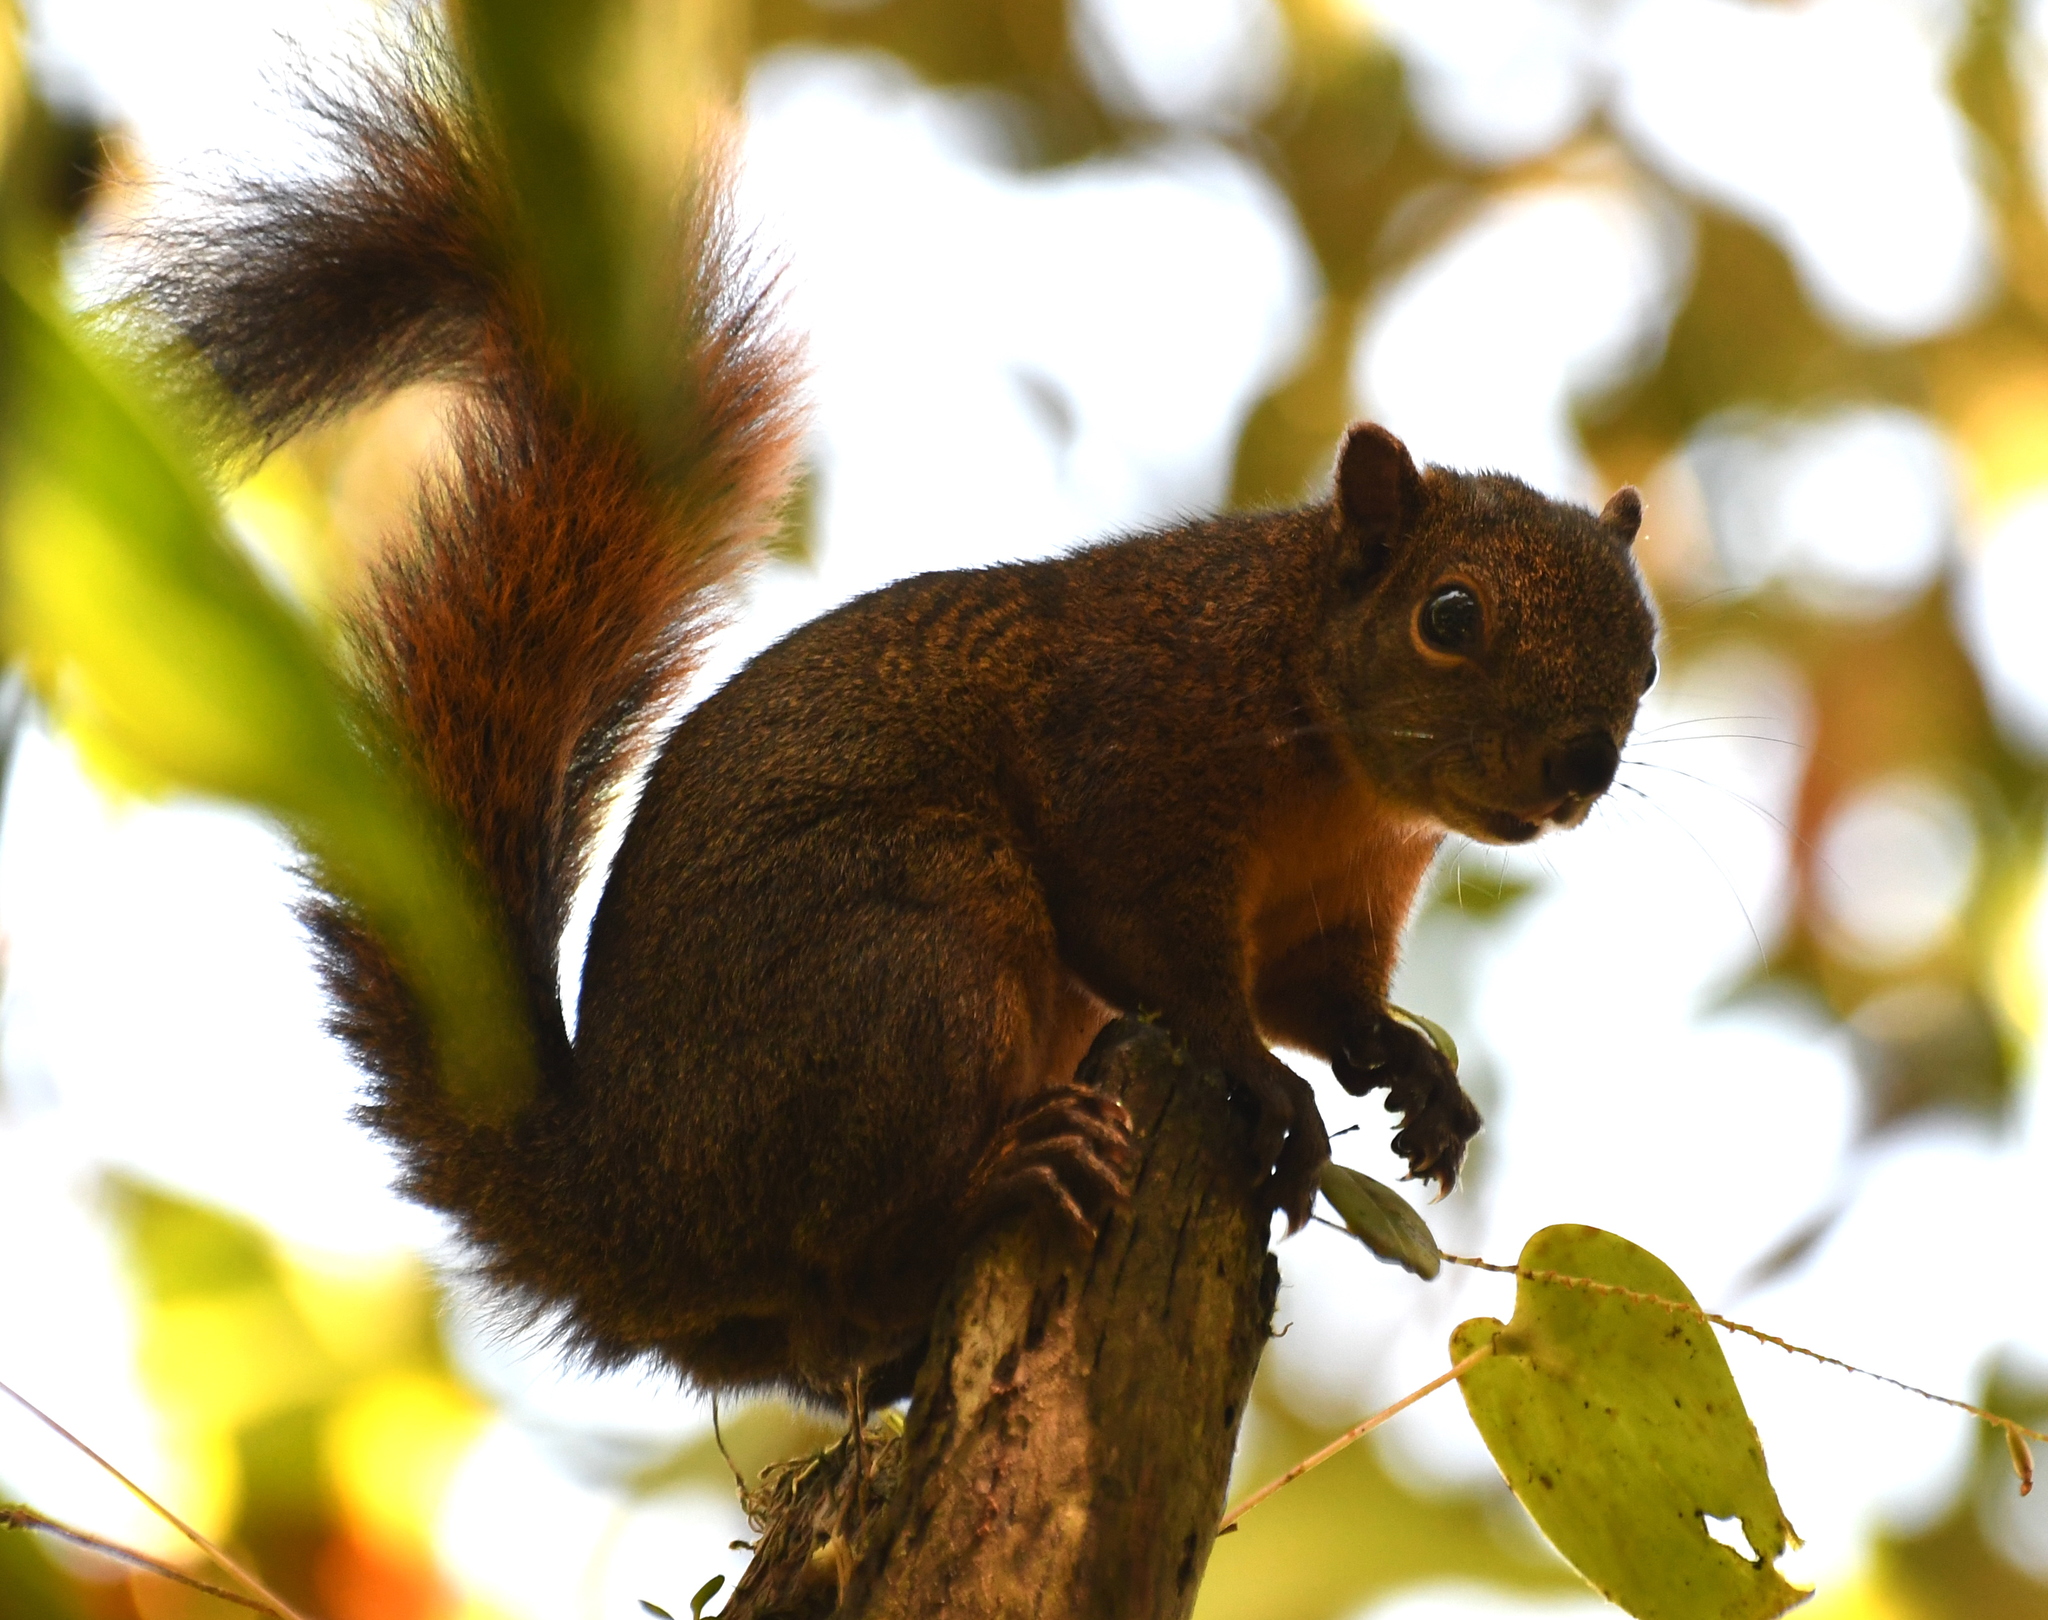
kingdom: Animalia
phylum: Chordata
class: Mammalia
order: Rodentia
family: Sciuridae
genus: Sciurus
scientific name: Sciurus granatensis
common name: Red-tailed squirrel
